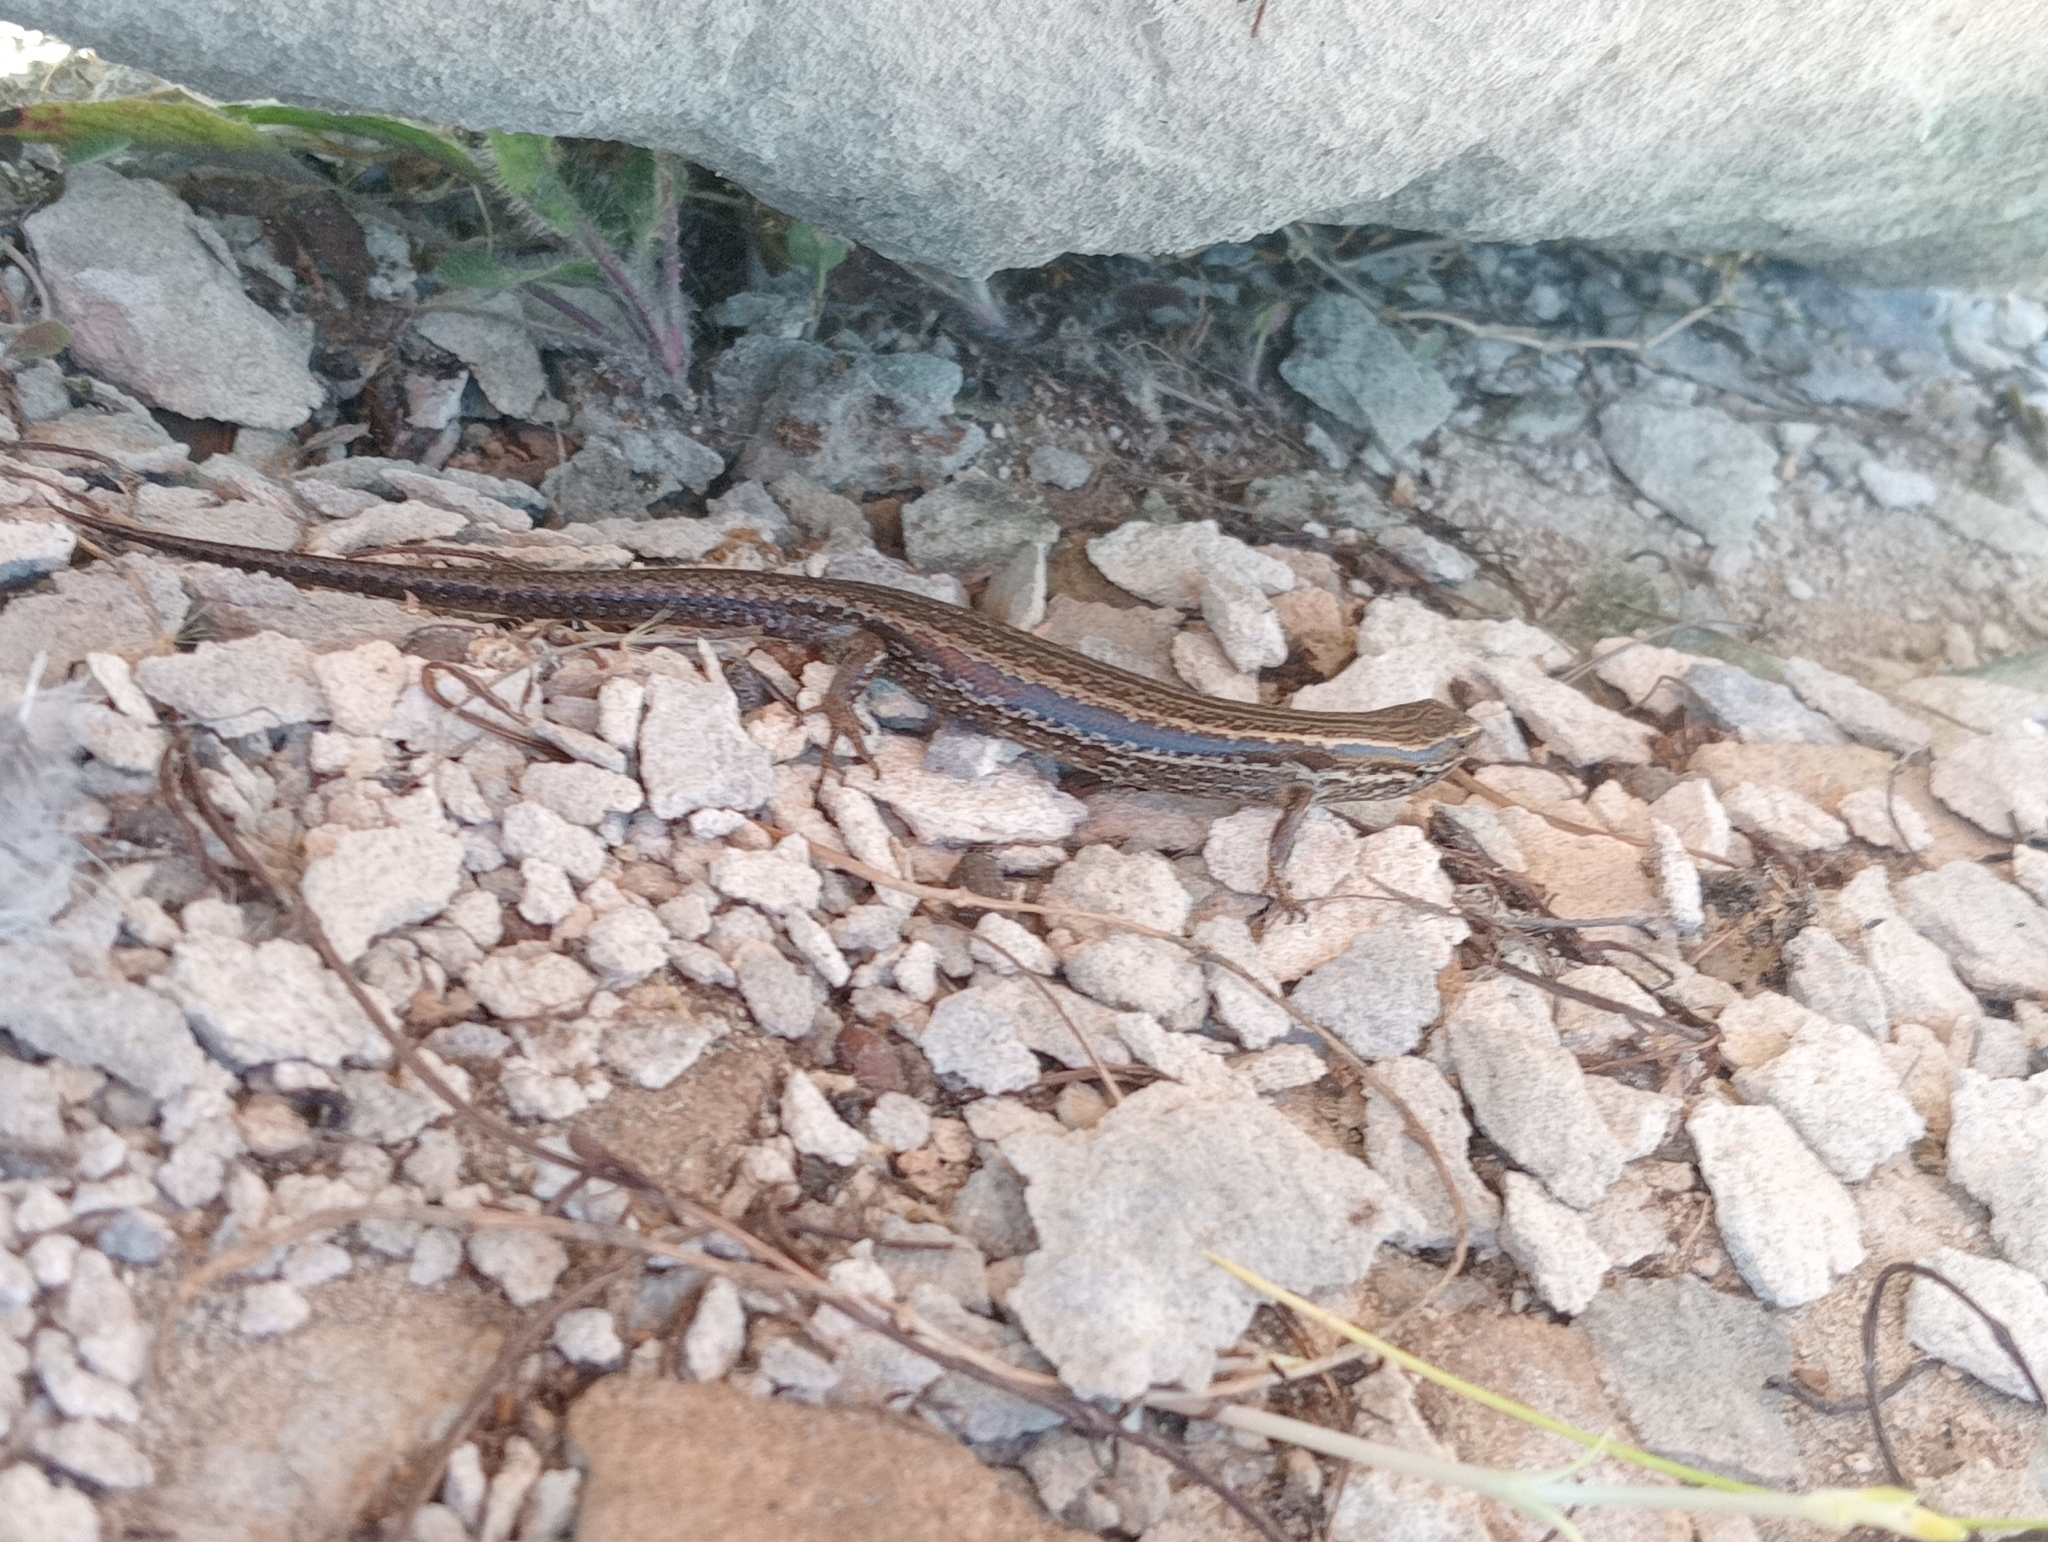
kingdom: Animalia
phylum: Chordata
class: Squamata
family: Scincidae
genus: Oligosoma
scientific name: Oligosoma polychroma
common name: Common new zealand skink
